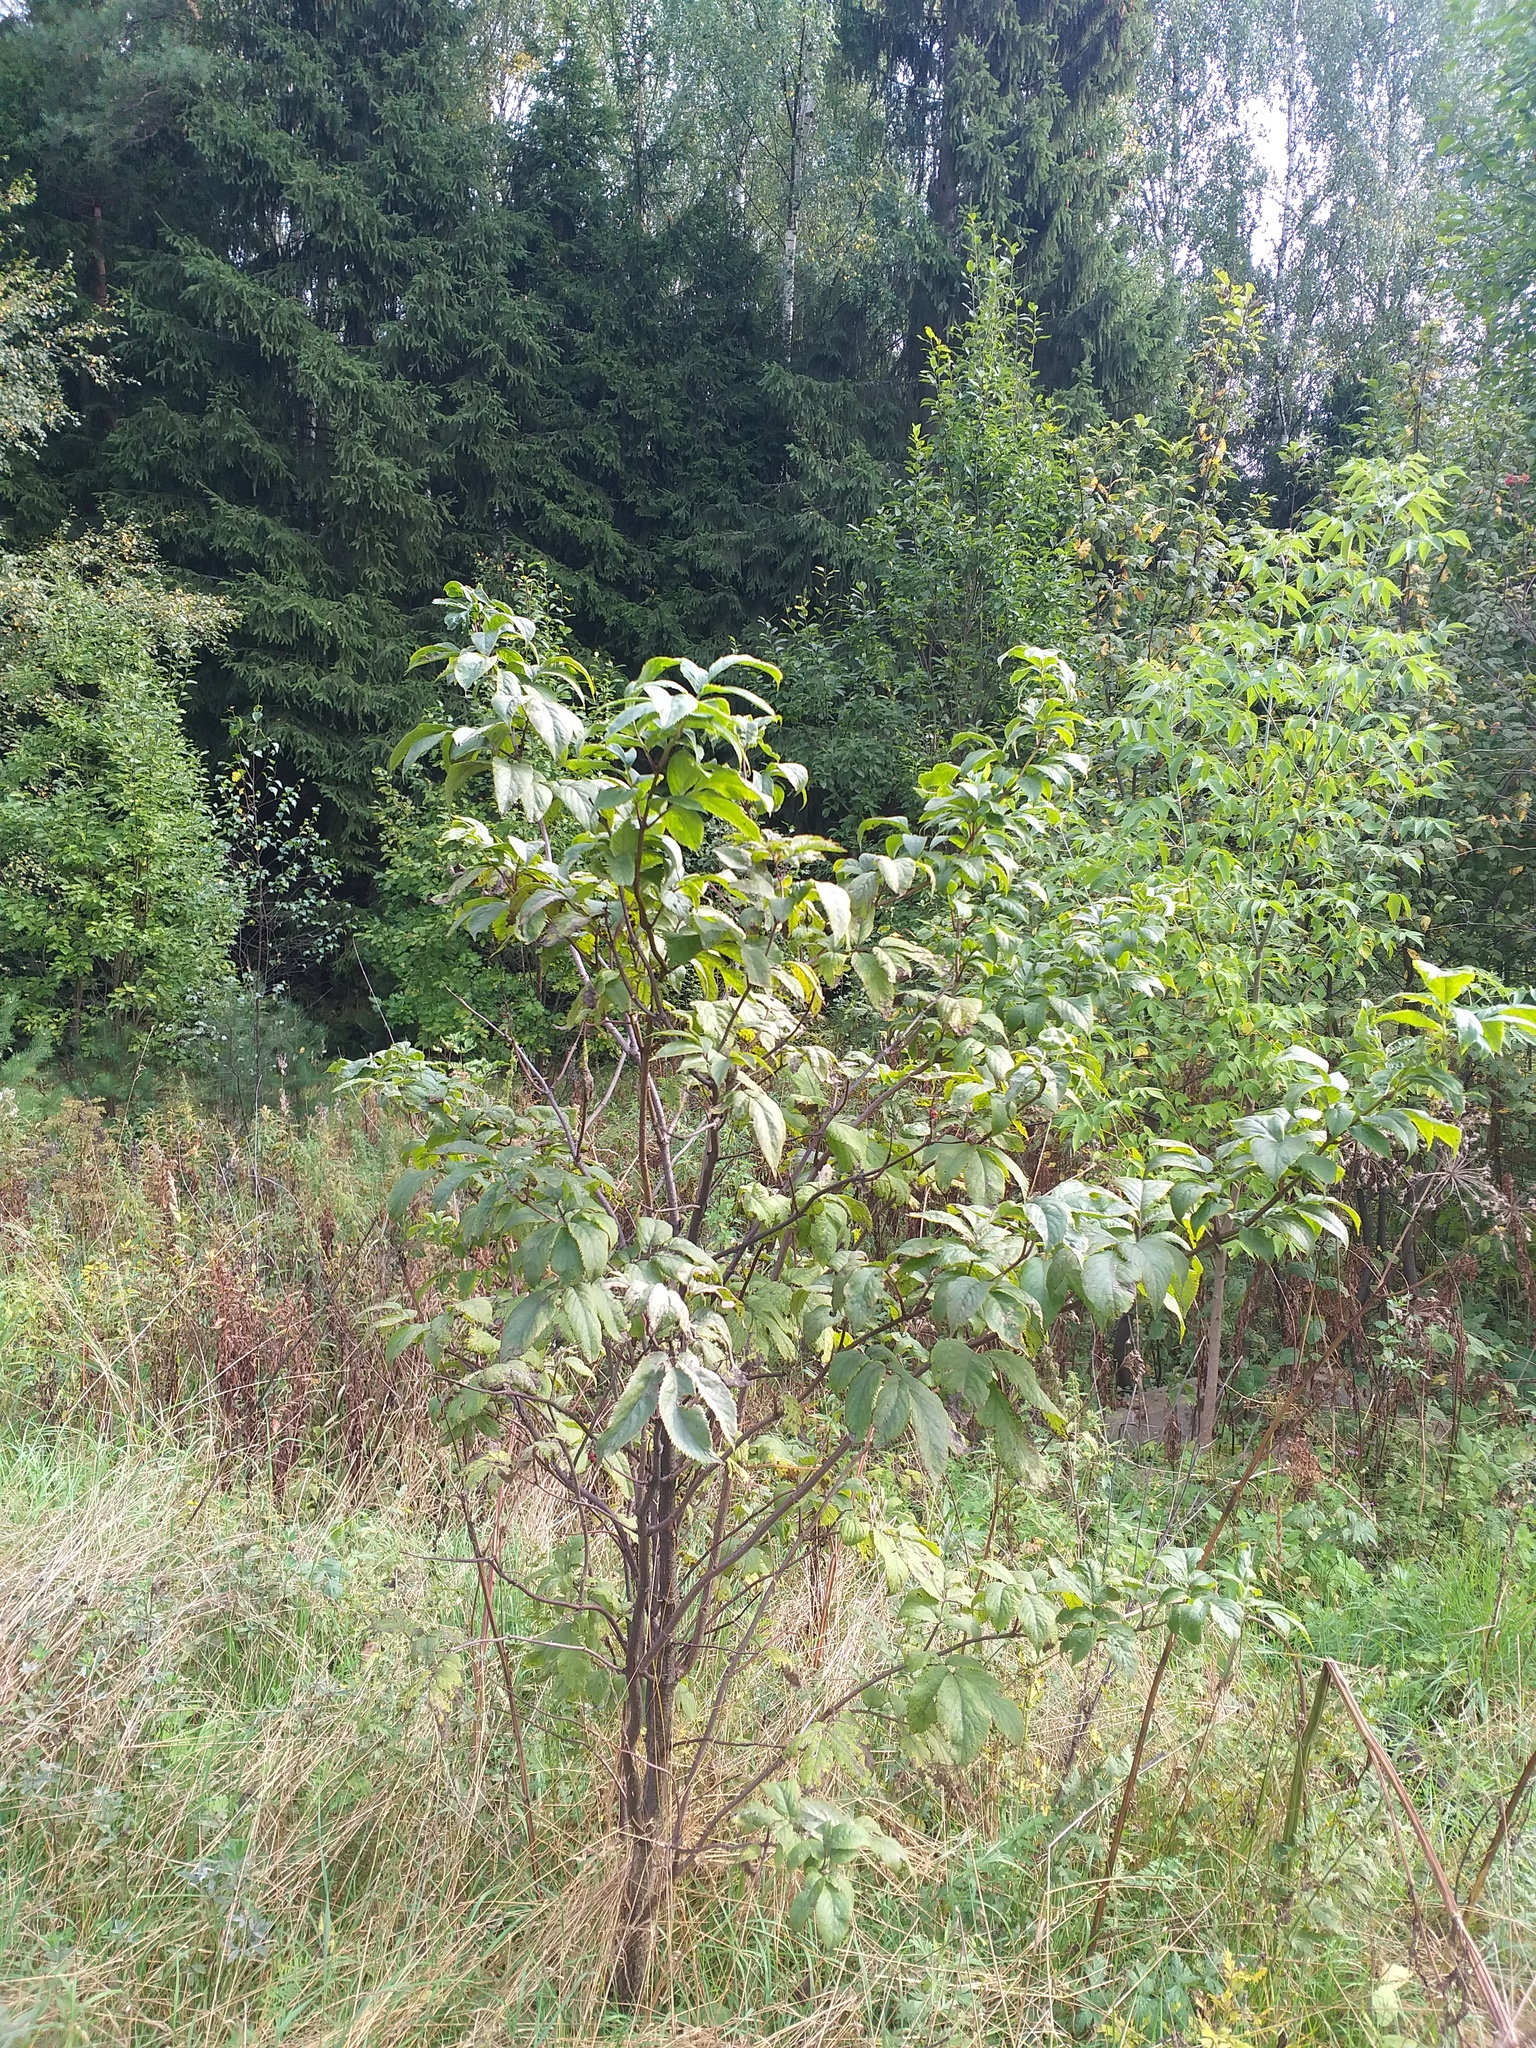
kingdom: Plantae
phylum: Tracheophyta
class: Magnoliopsida
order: Dipsacales
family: Viburnaceae
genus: Sambucus
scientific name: Sambucus racemosa
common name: Red-berried elder
